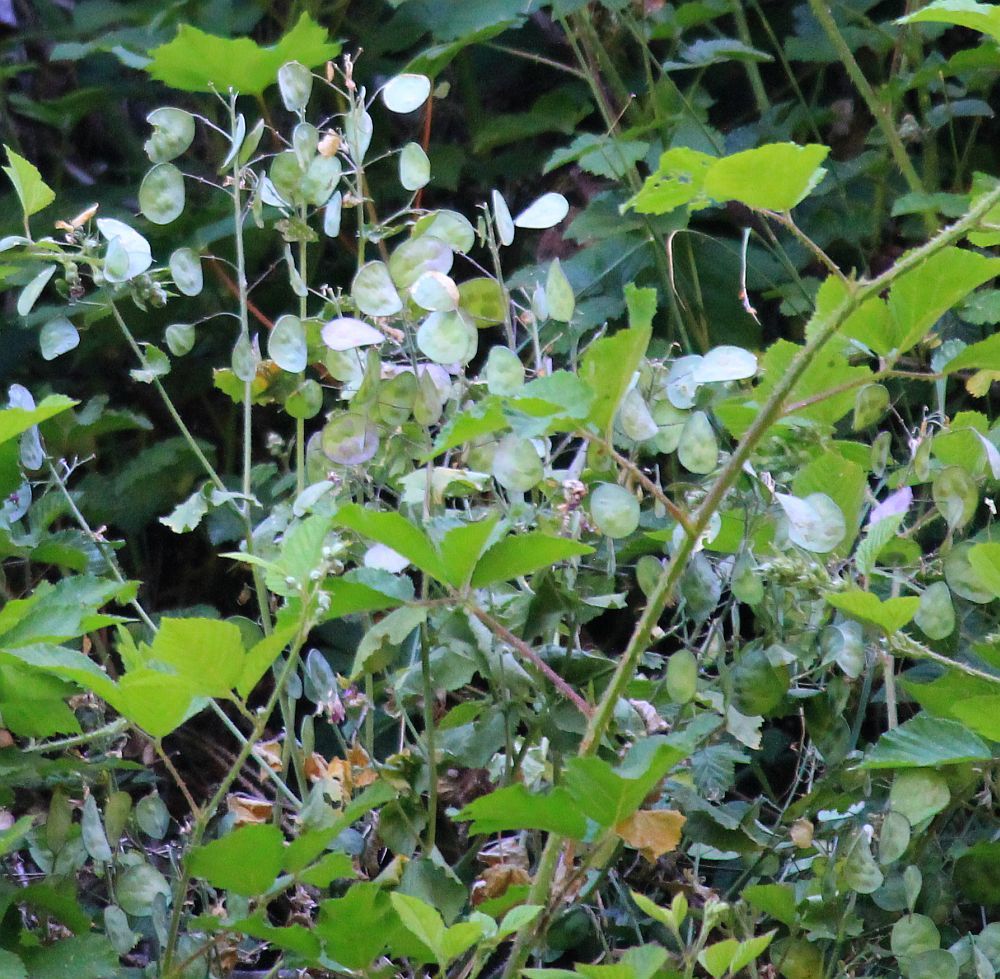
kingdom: Plantae
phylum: Tracheophyta
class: Magnoliopsida
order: Brassicales
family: Brassicaceae
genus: Lunaria
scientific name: Lunaria annua
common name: Honesty
